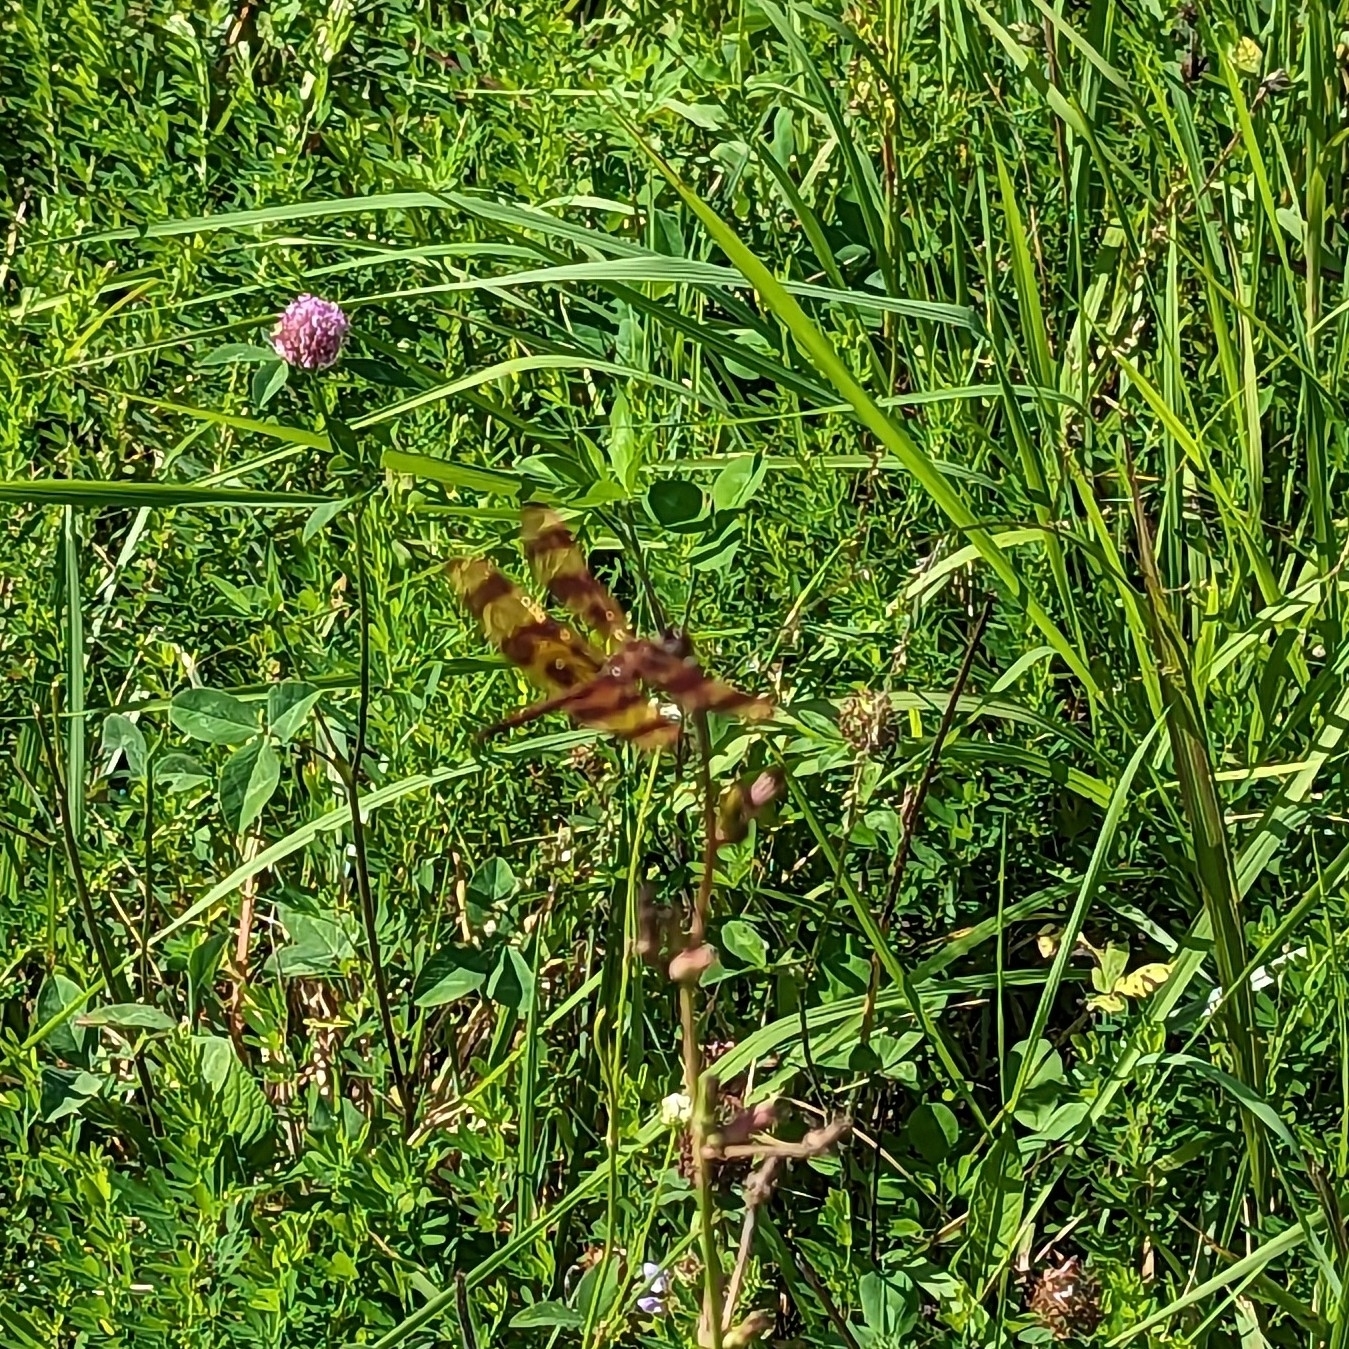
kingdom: Animalia
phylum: Arthropoda
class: Insecta
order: Odonata
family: Libellulidae
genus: Celithemis
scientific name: Celithemis eponina
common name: Halloween pennant
